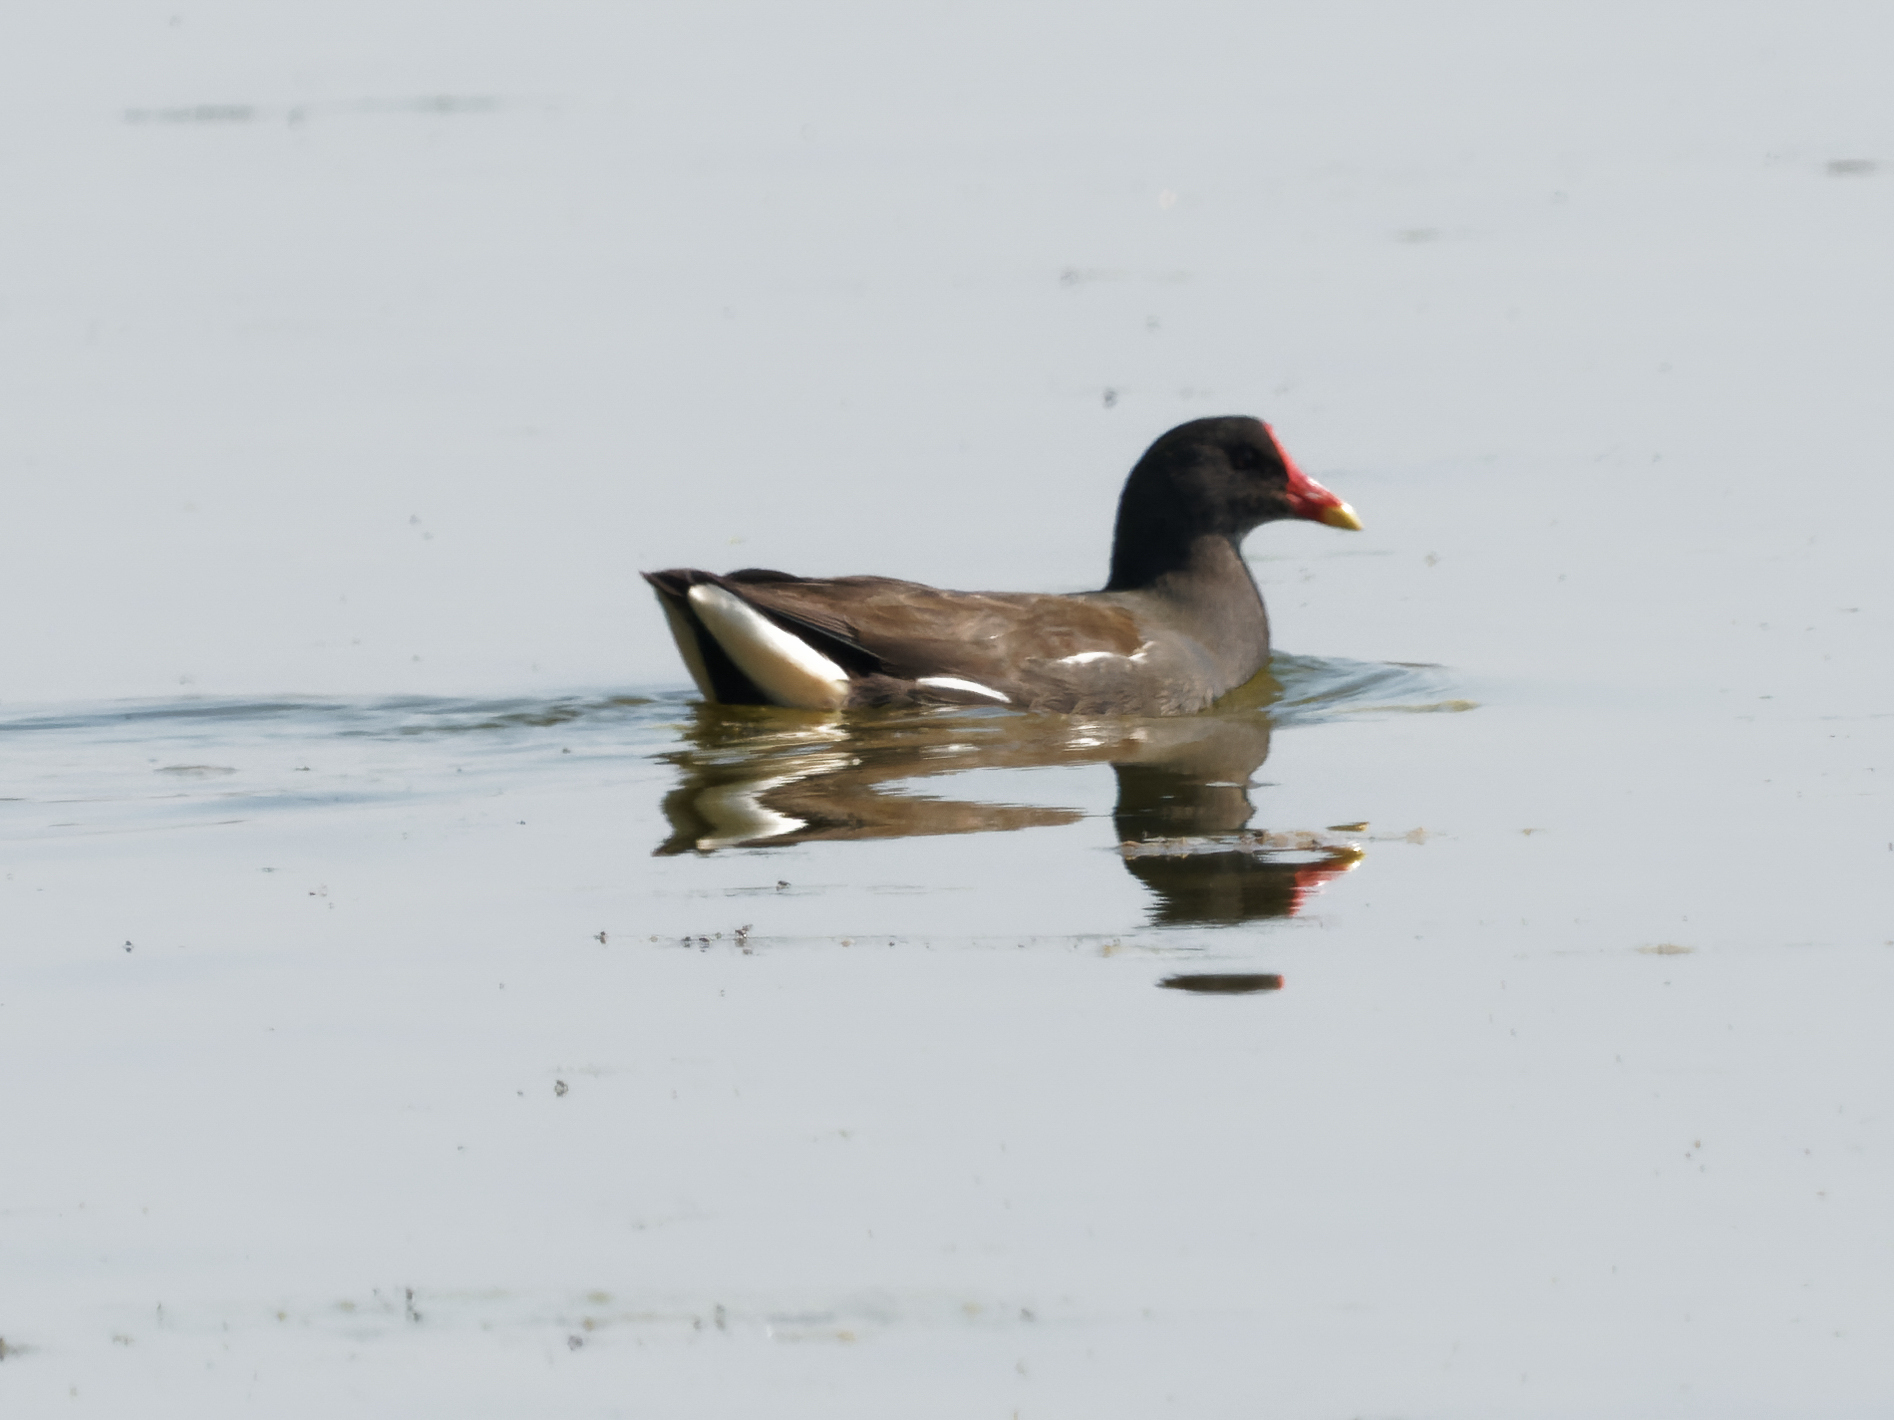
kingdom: Animalia
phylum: Chordata
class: Aves
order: Gruiformes
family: Rallidae
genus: Gallinula
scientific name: Gallinula chloropus
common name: Common moorhen
